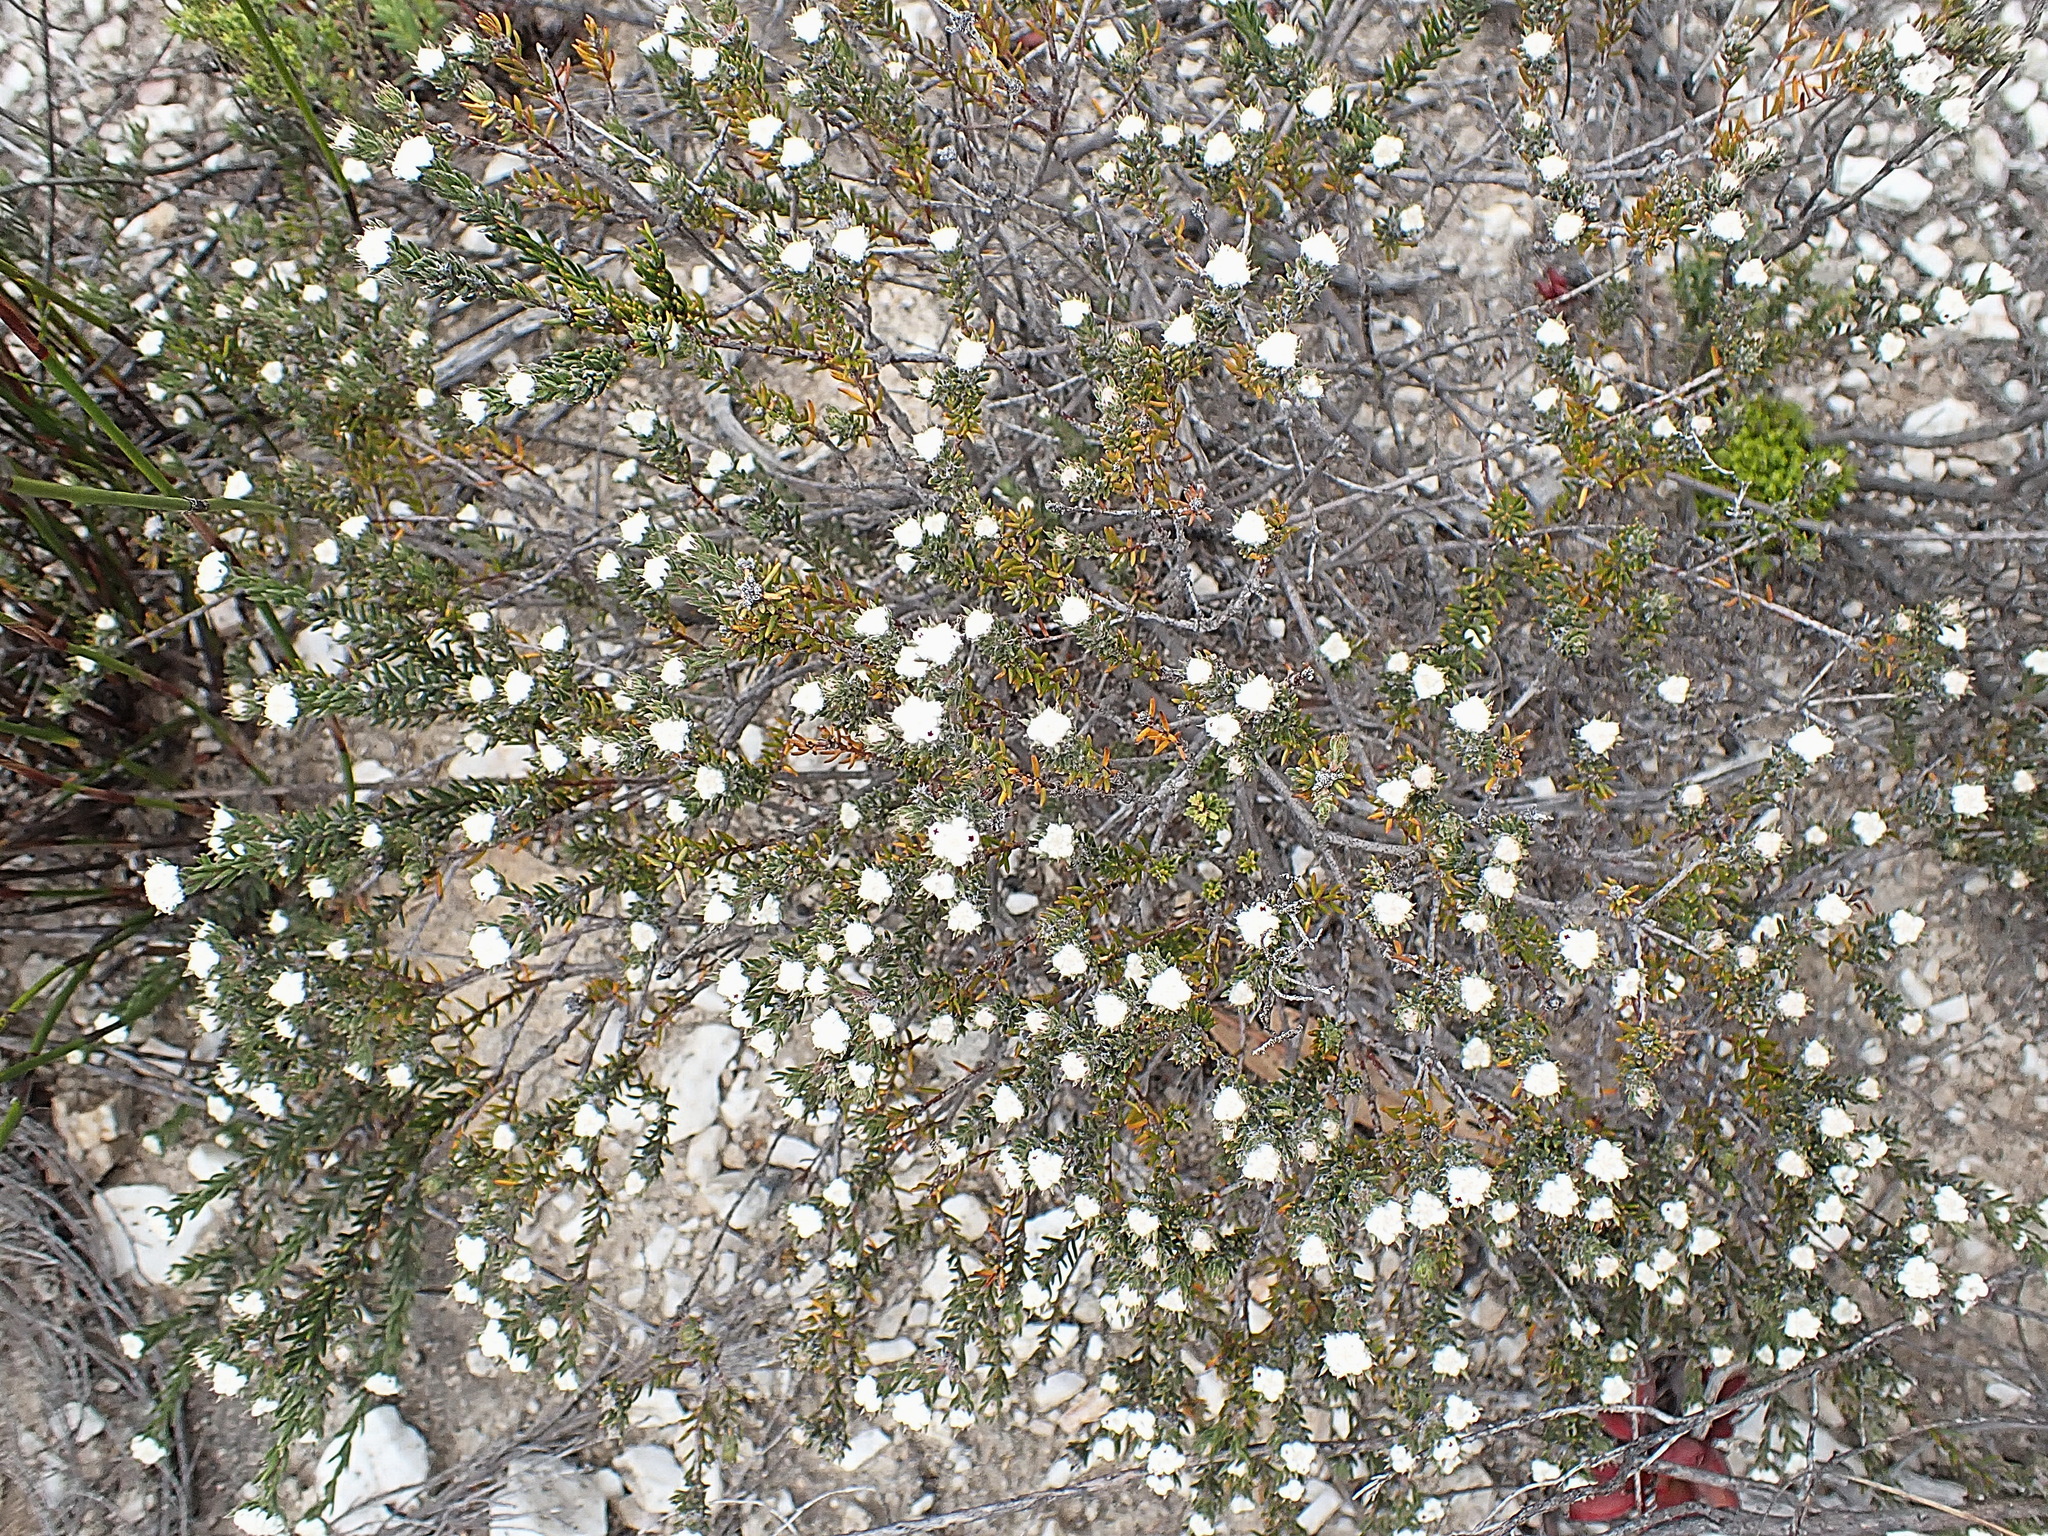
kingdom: Plantae
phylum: Tracheophyta
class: Magnoliopsida
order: Rosales
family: Rhamnaceae
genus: Phylica
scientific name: Phylica karroica
